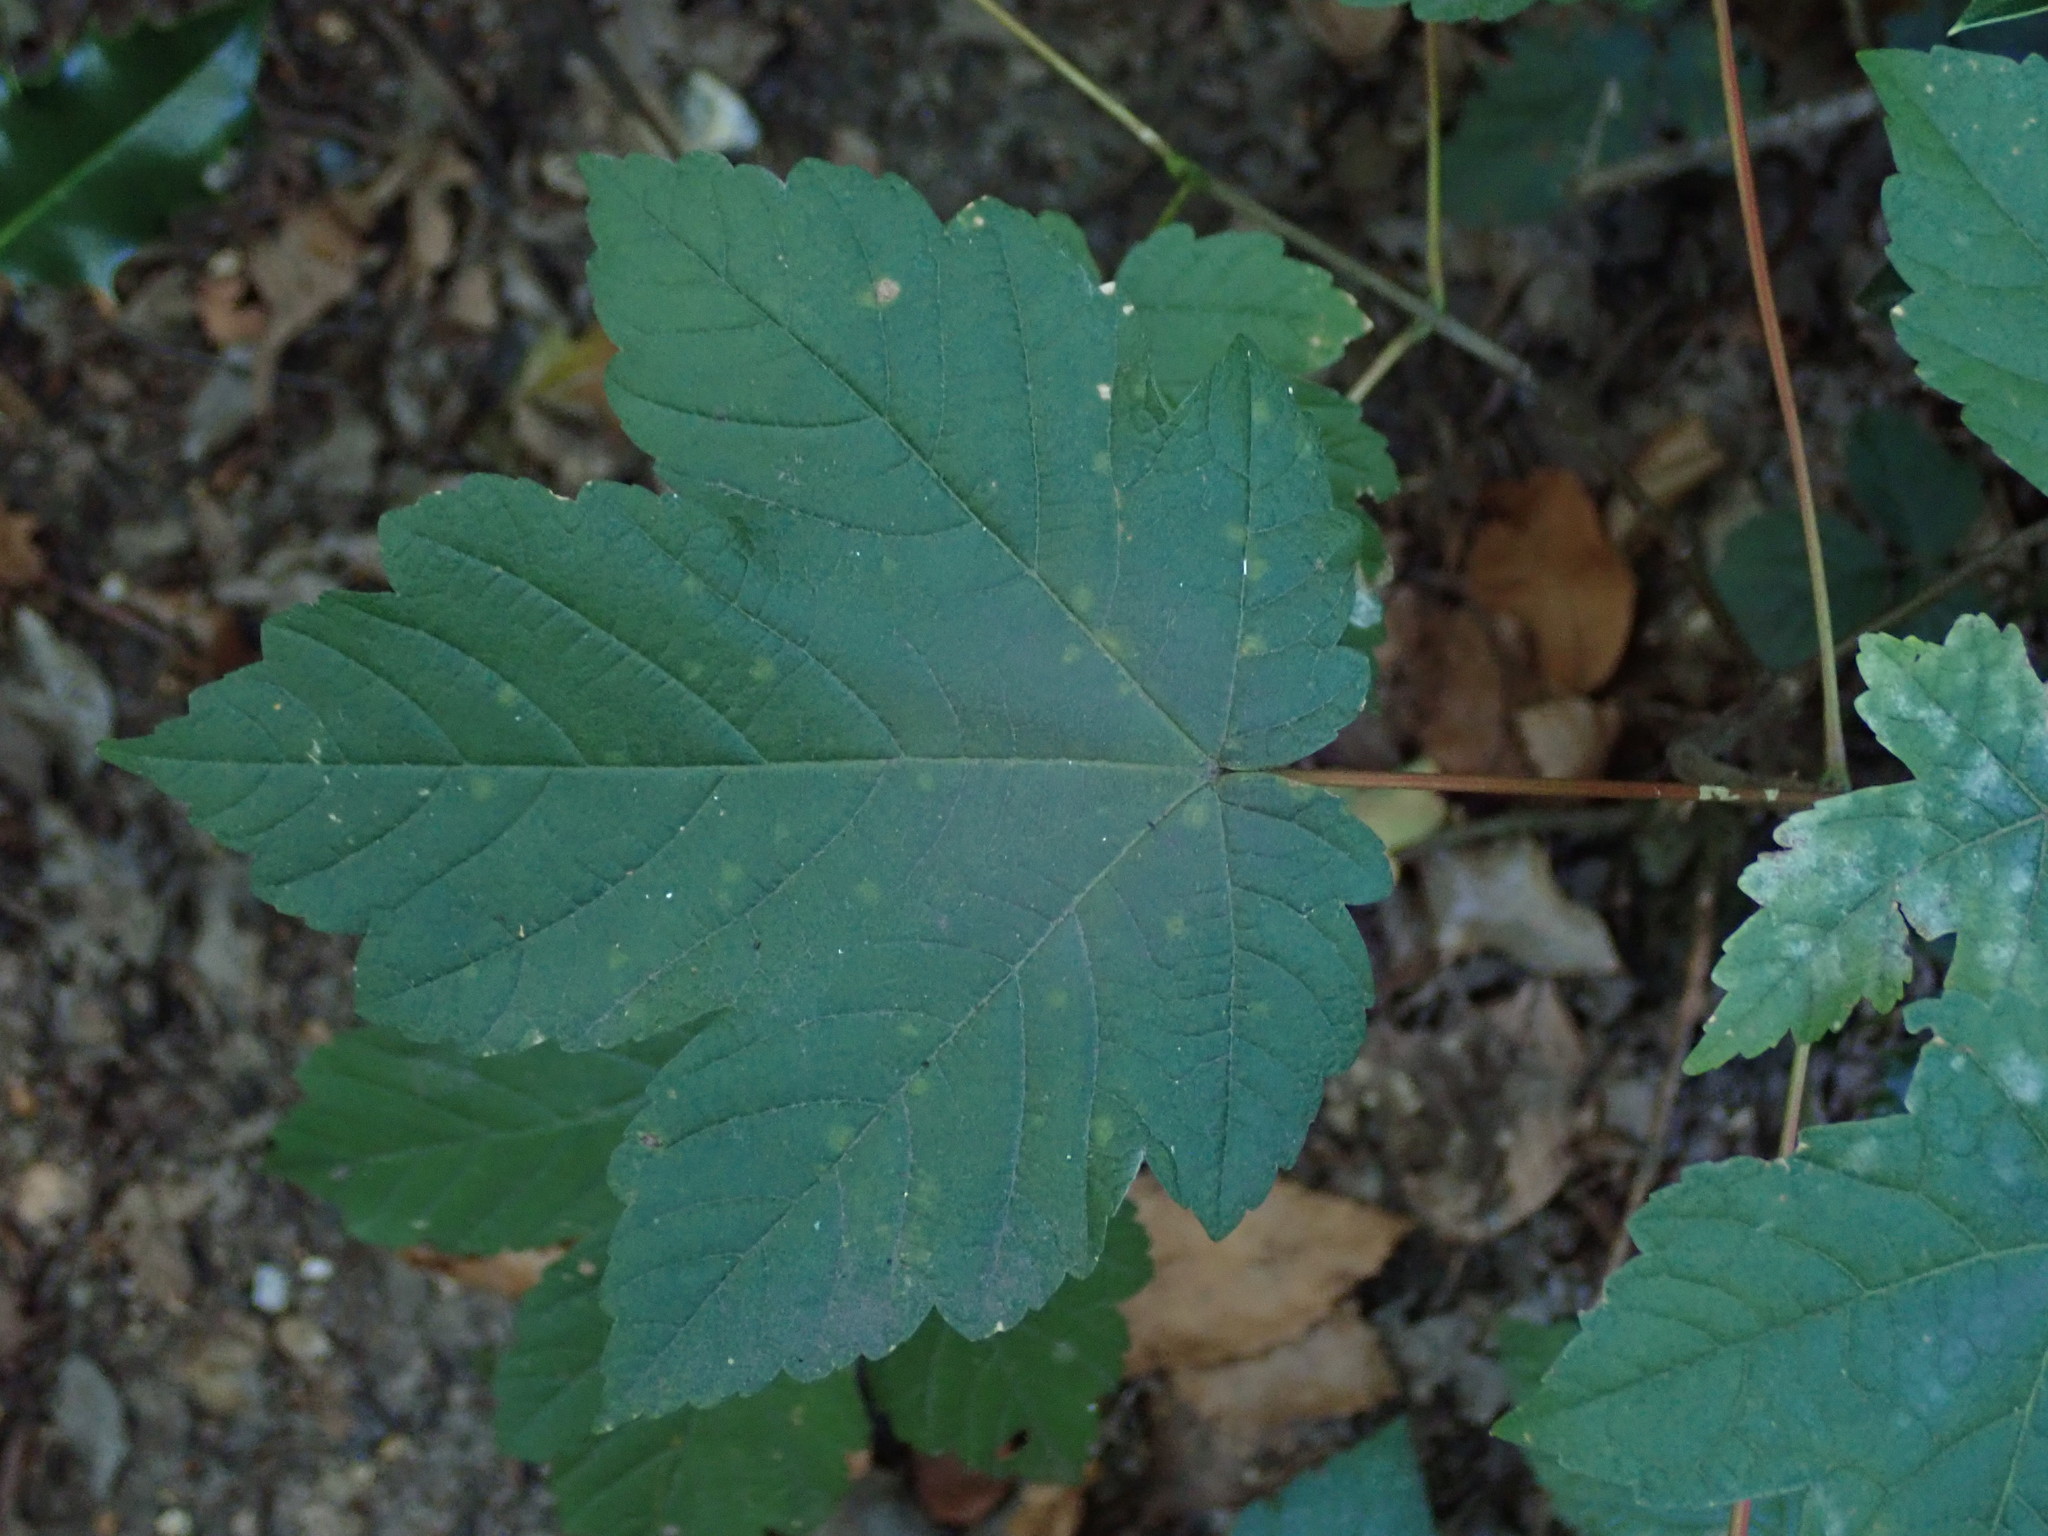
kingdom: Plantae
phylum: Tracheophyta
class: Magnoliopsida
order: Sapindales
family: Sapindaceae
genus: Acer
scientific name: Acer pseudoplatanus
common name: Sycamore
